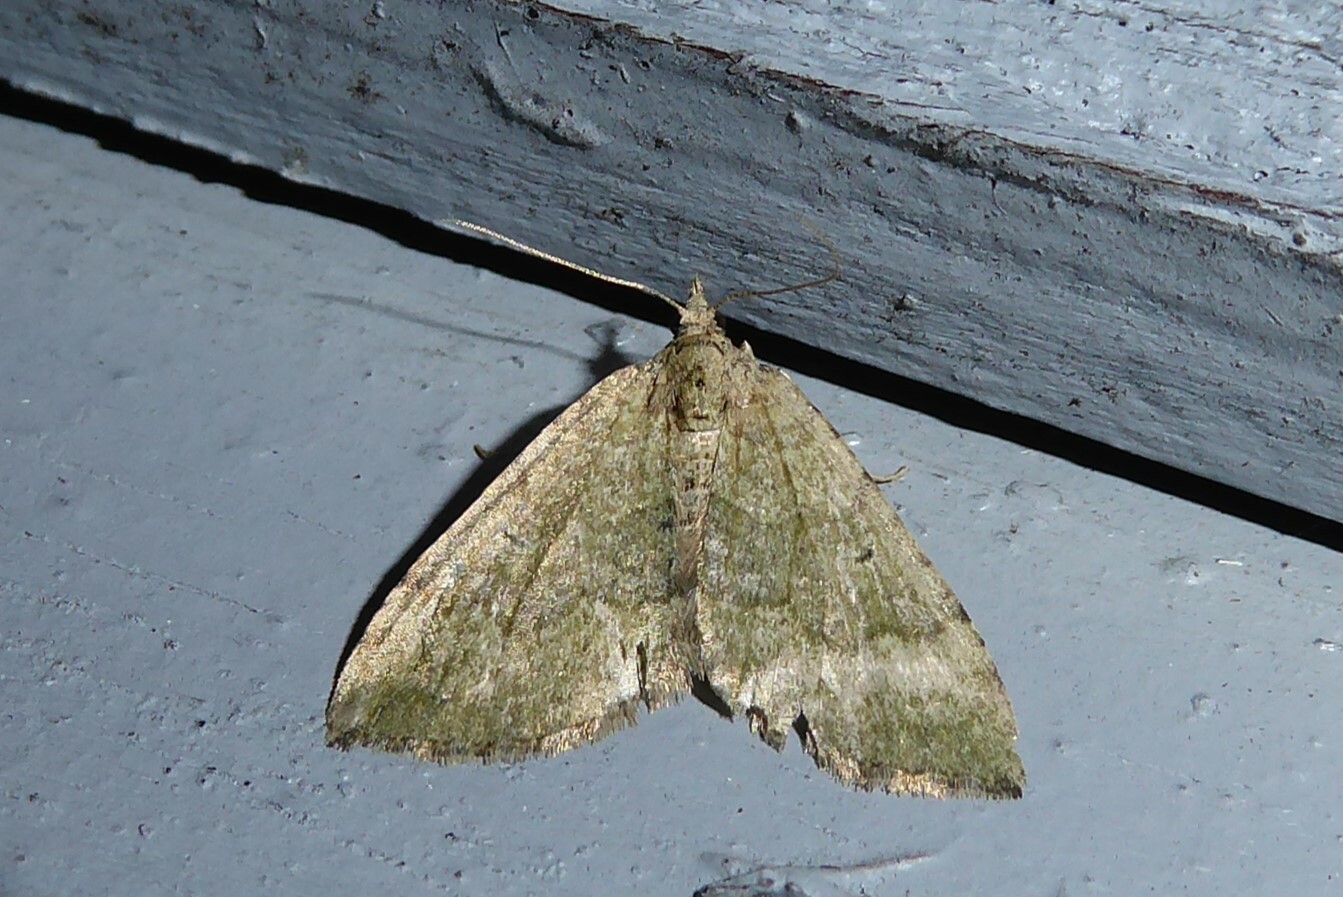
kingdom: Animalia
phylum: Arthropoda
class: Insecta
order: Lepidoptera
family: Geometridae
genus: Epyaxa
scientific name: Epyaxa rosearia
